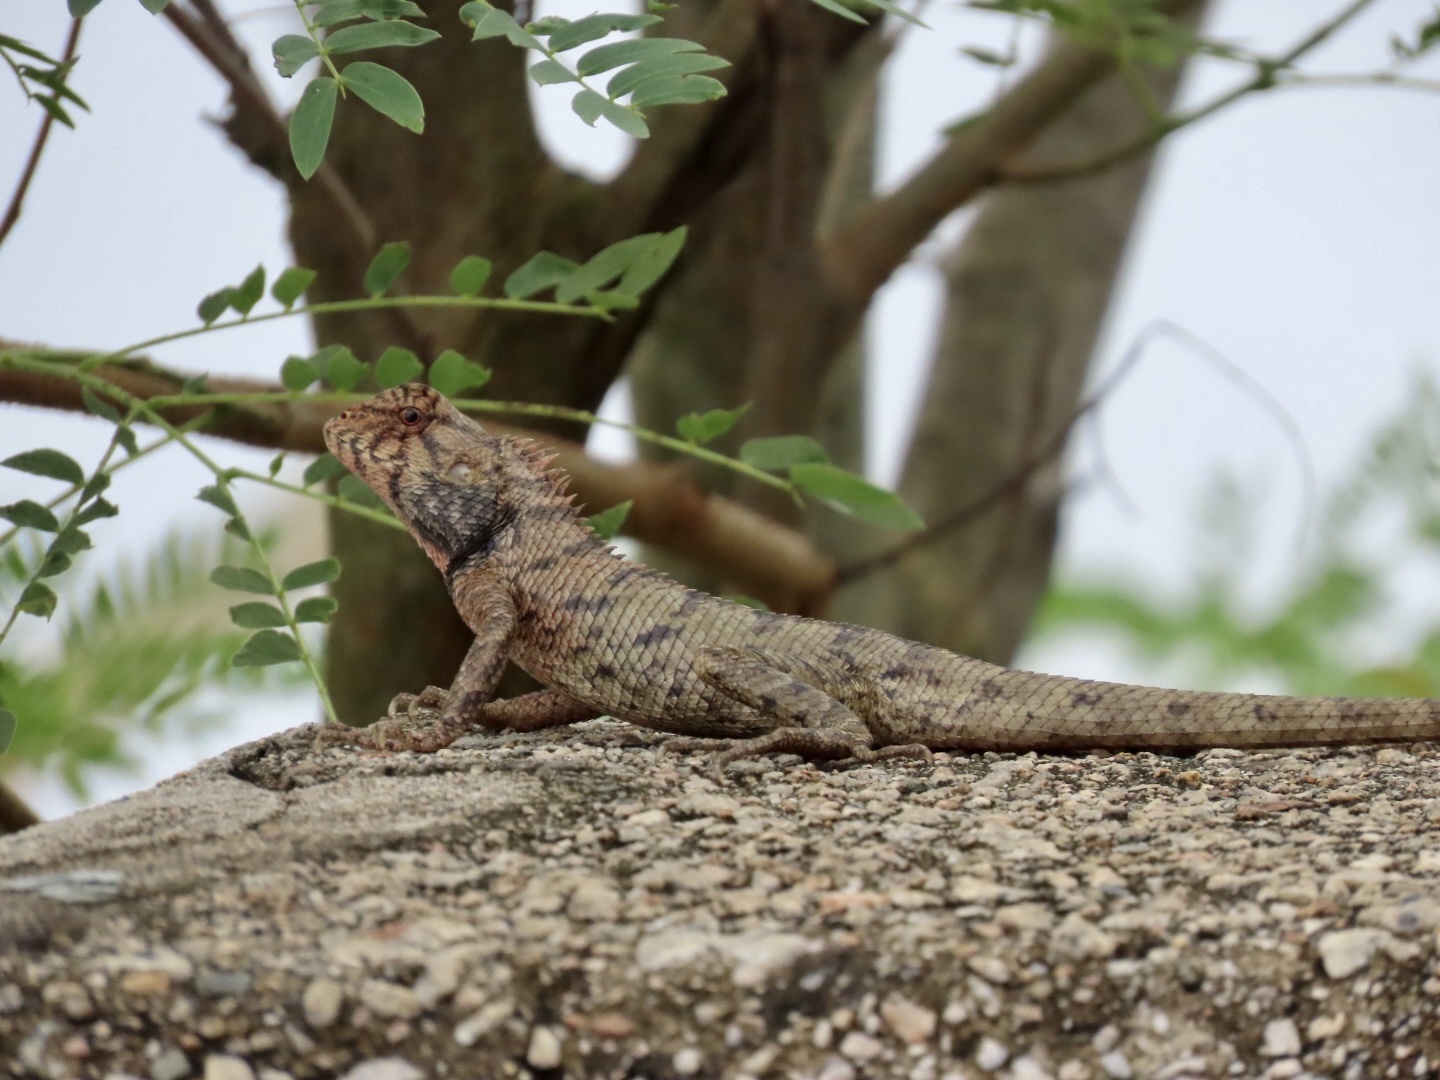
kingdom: Animalia
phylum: Chordata
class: Squamata
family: Agamidae
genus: Calotes
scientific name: Calotes versicolor
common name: Oriental garden lizard
